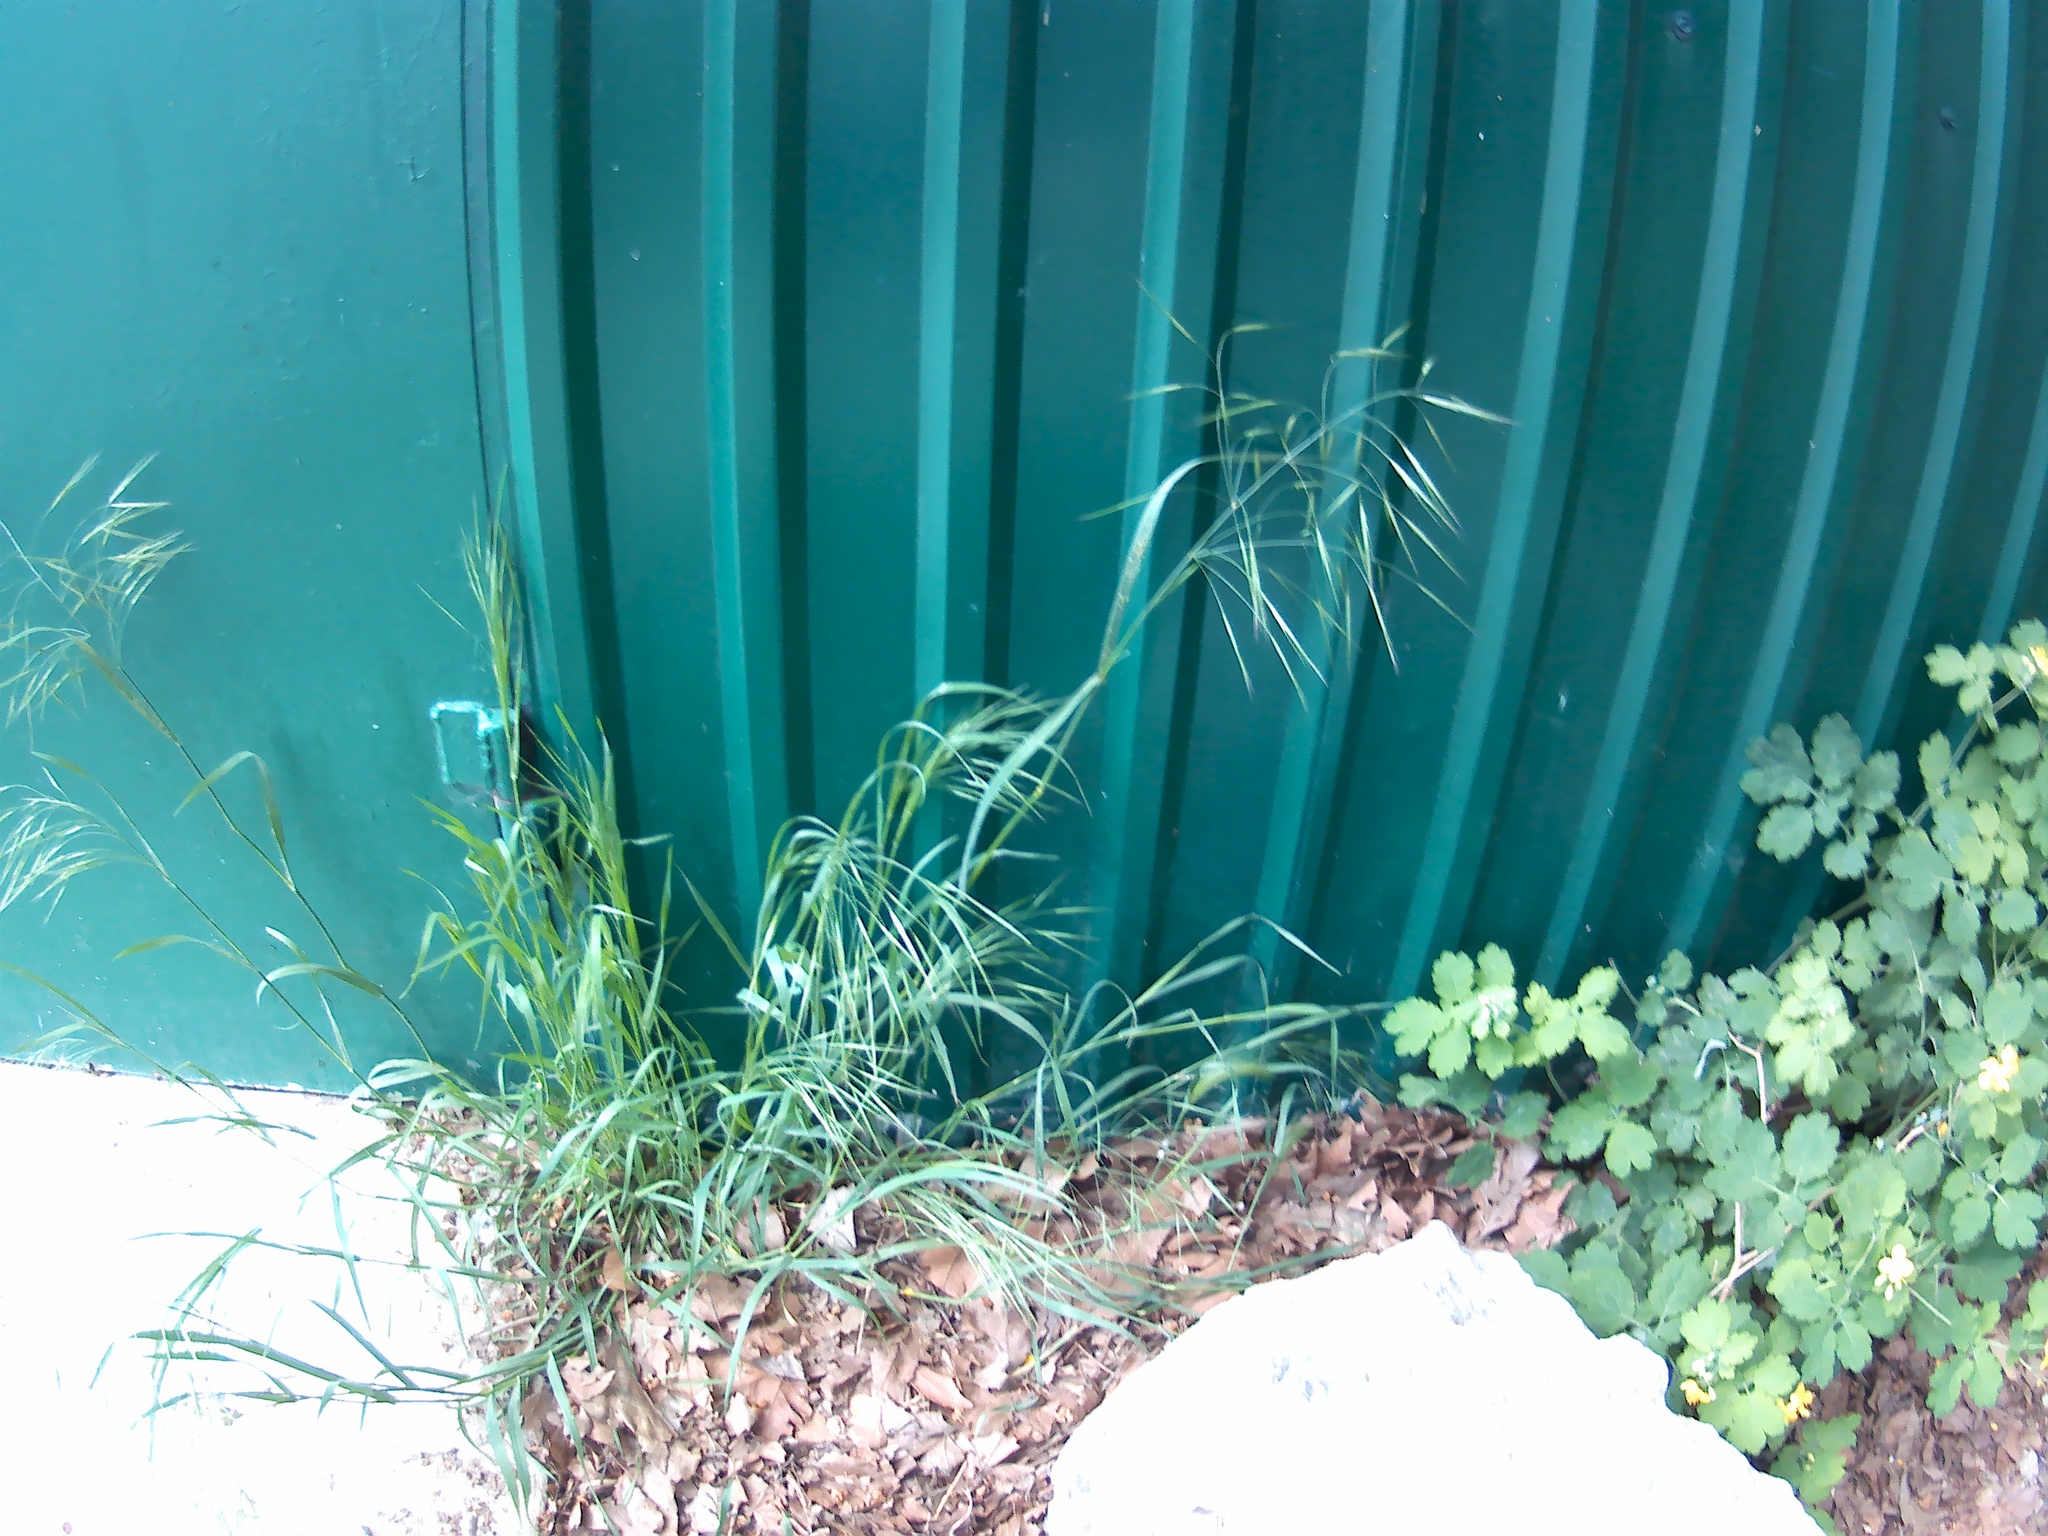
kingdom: Plantae
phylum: Tracheophyta
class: Liliopsida
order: Poales
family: Poaceae
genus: Bromus
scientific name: Bromus sterilis
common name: Poverty brome
